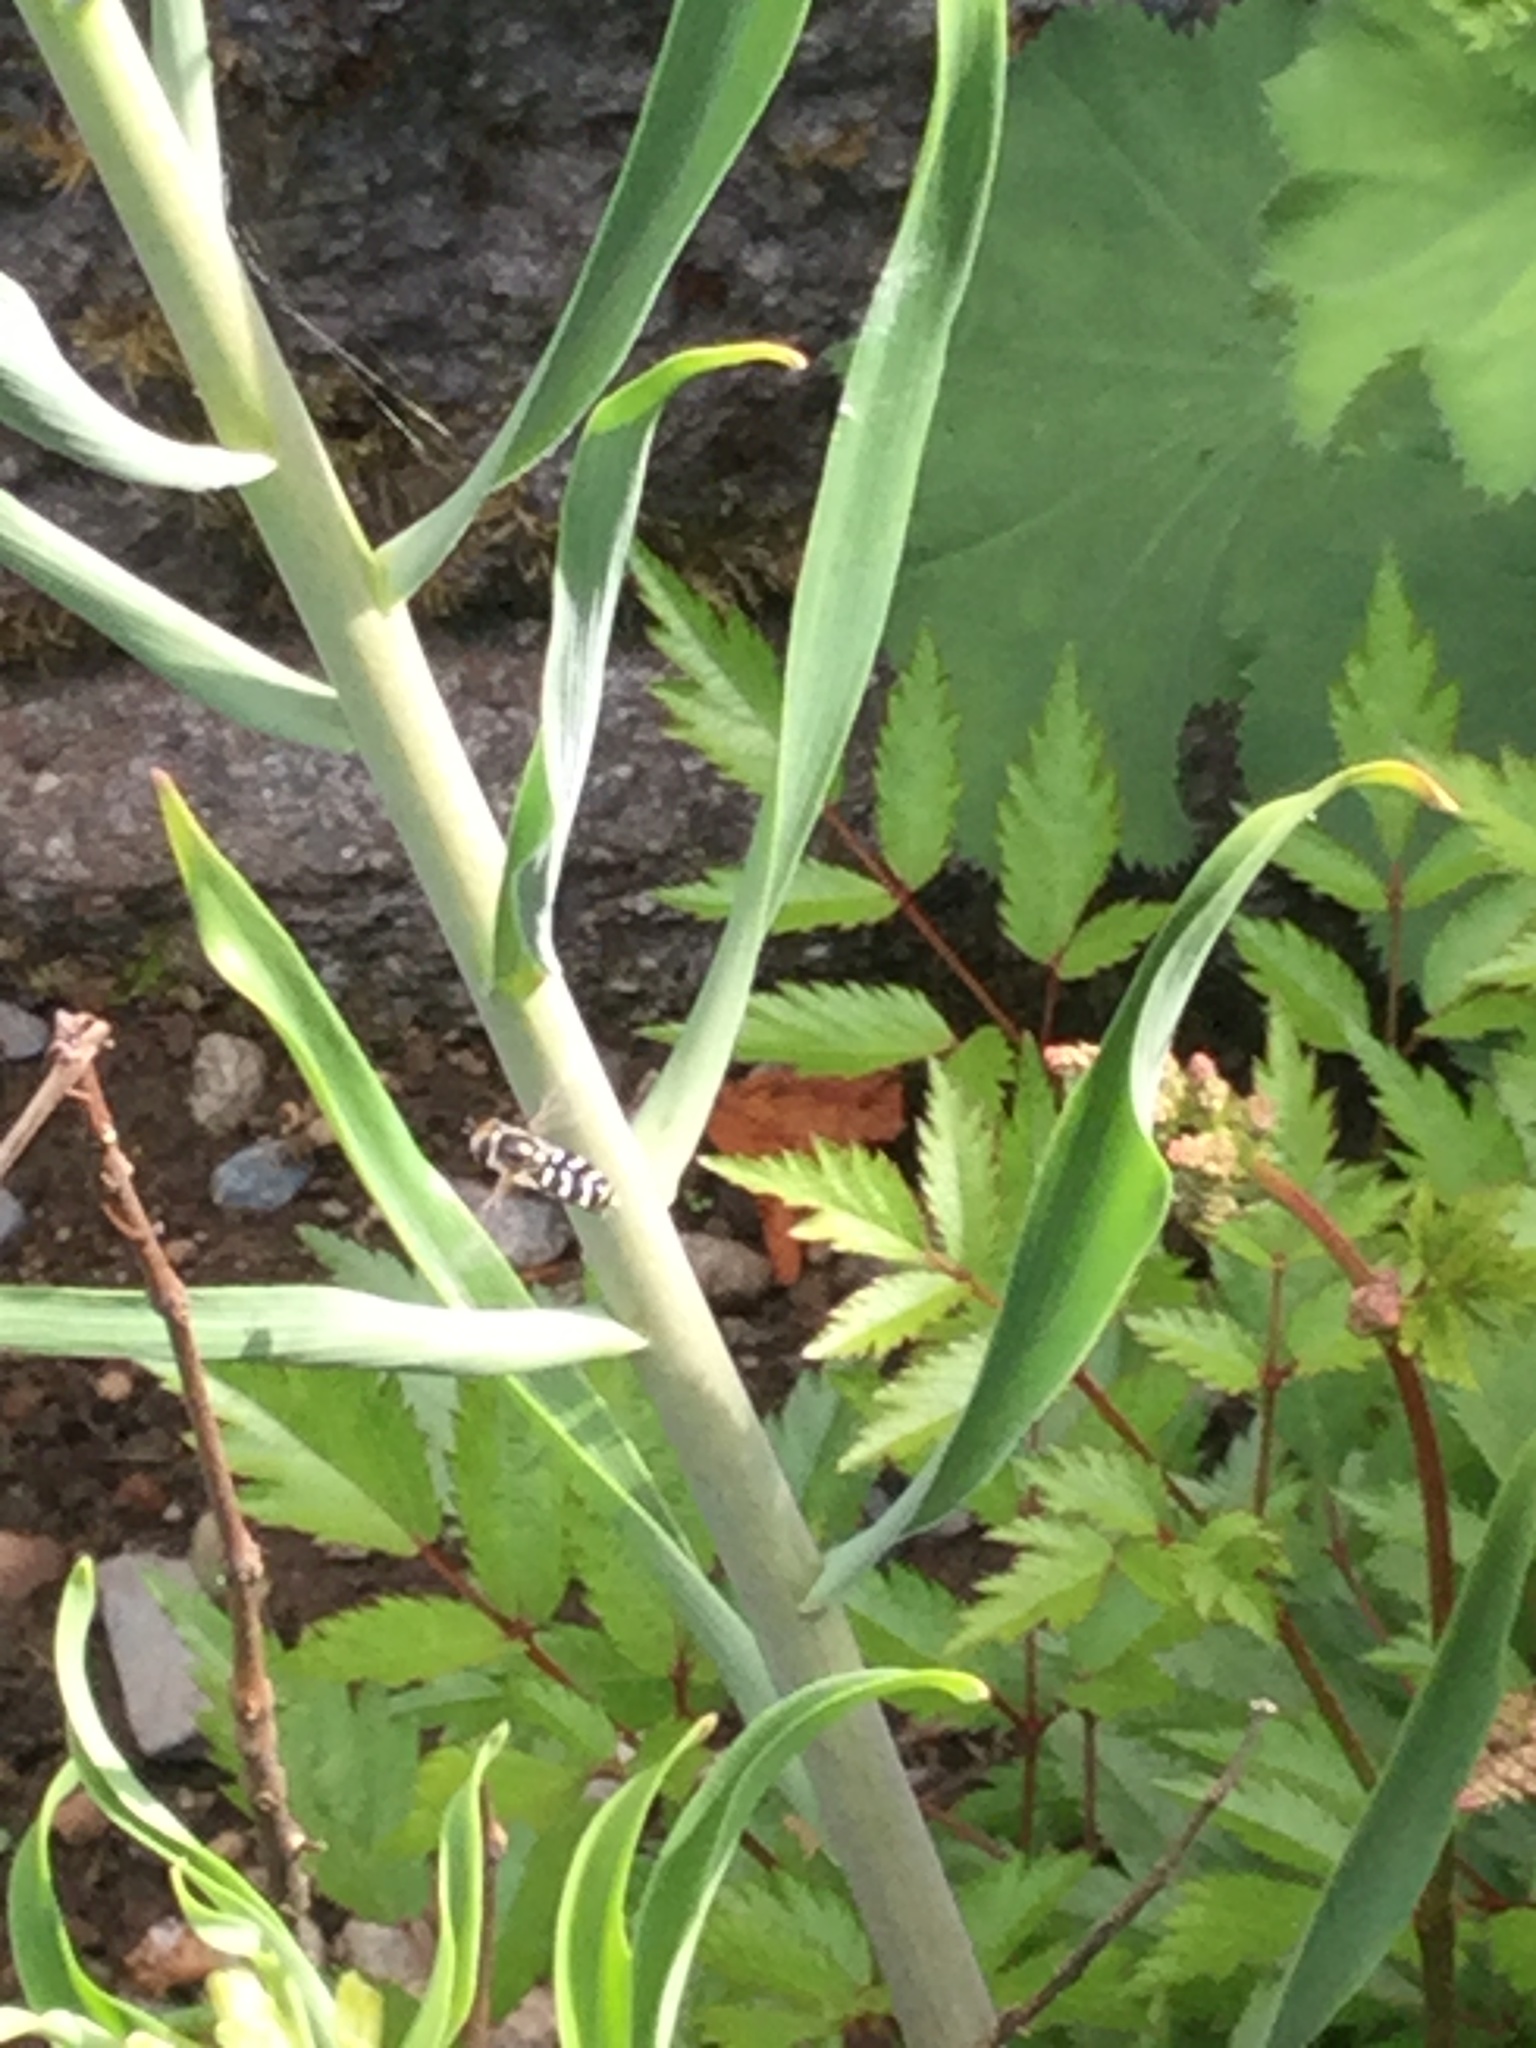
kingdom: Animalia
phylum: Arthropoda
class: Insecta
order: Diptera
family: Syrphidae
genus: Scaeva
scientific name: Scaeva affinis
